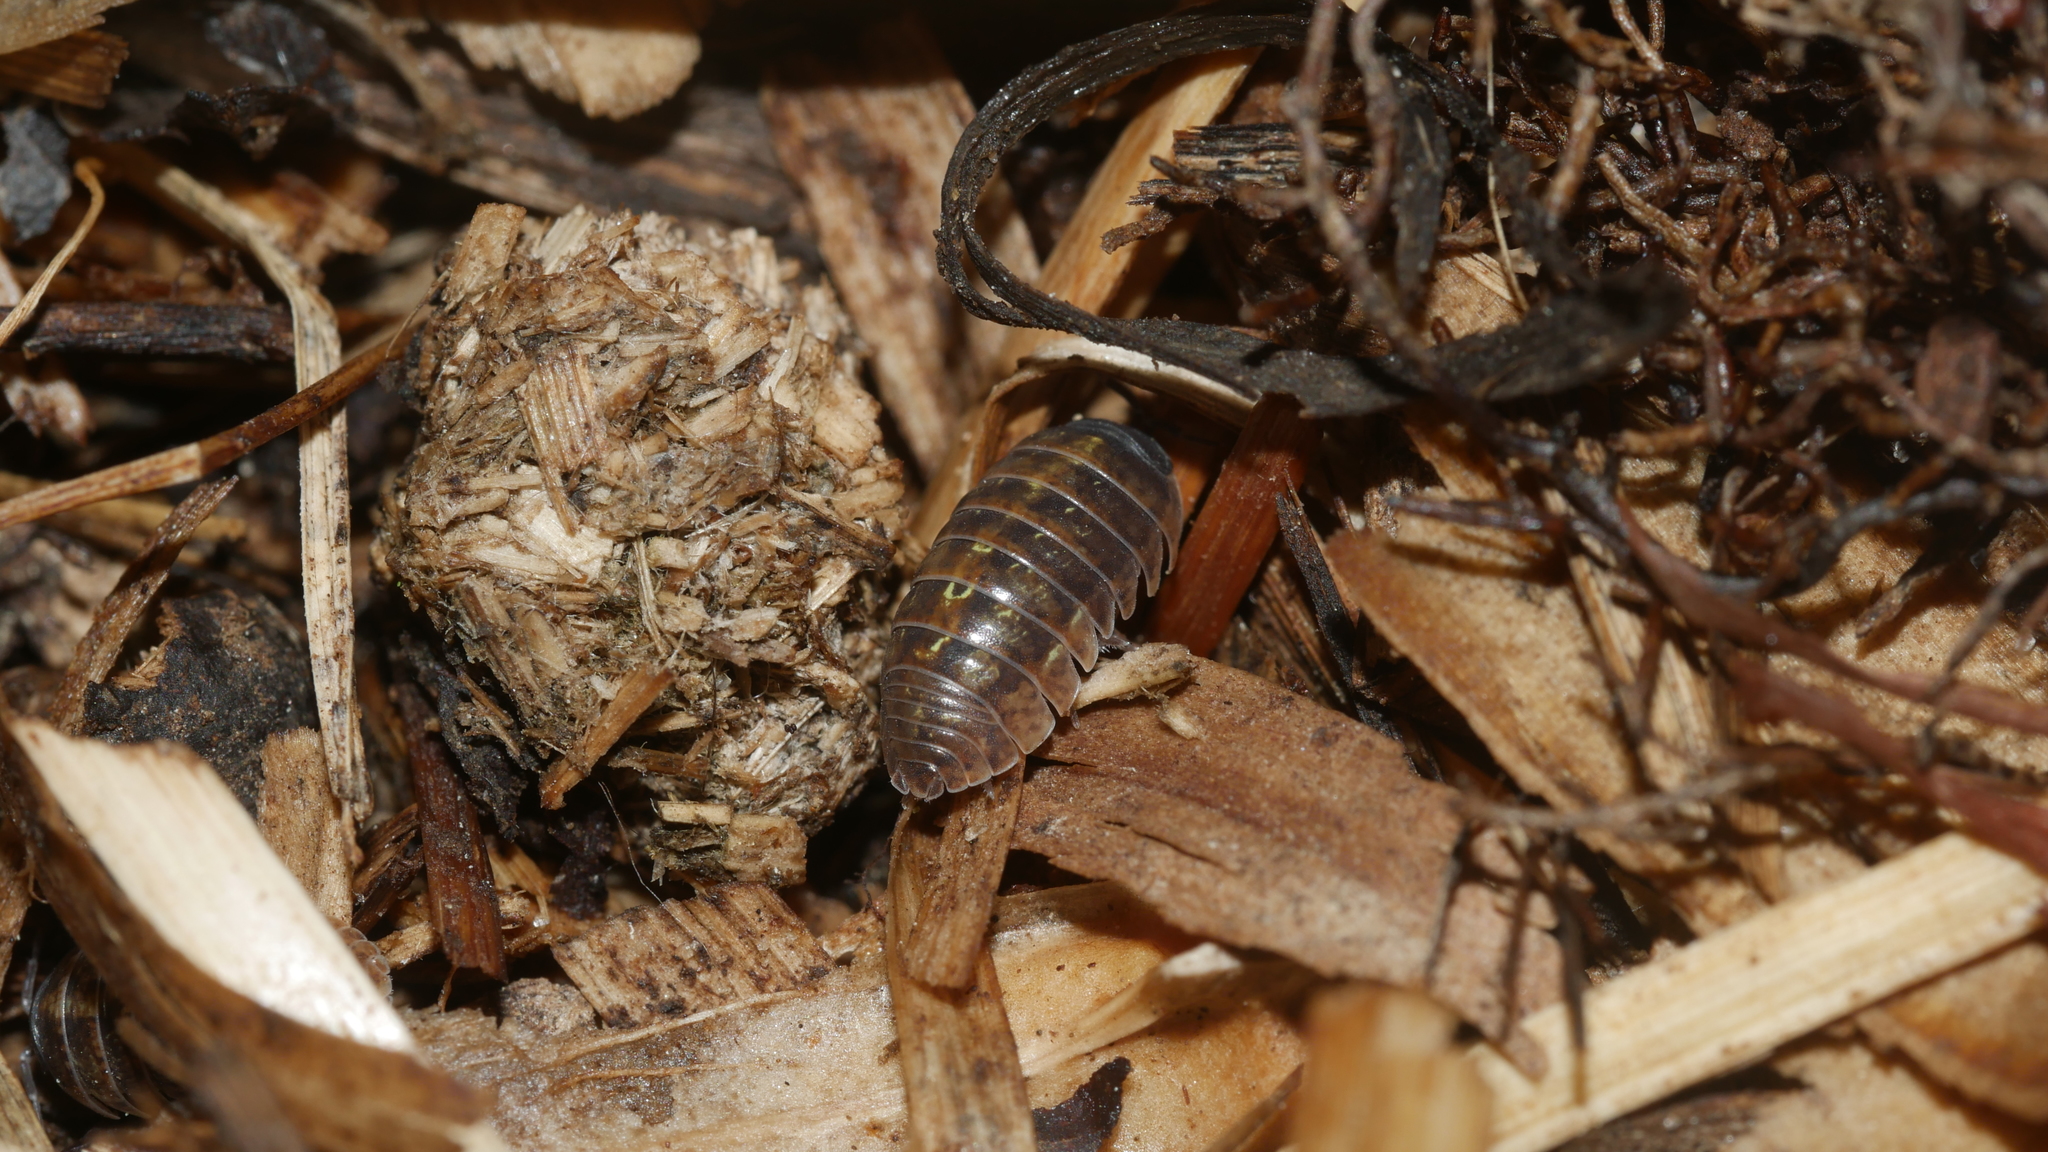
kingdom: Animalia
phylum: Arthropoda
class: Malacostraca
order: Isopoda
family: Armadillidiidae
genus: Armadillidium
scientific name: Armadillidium vulgare
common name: Common pill woodlouse
